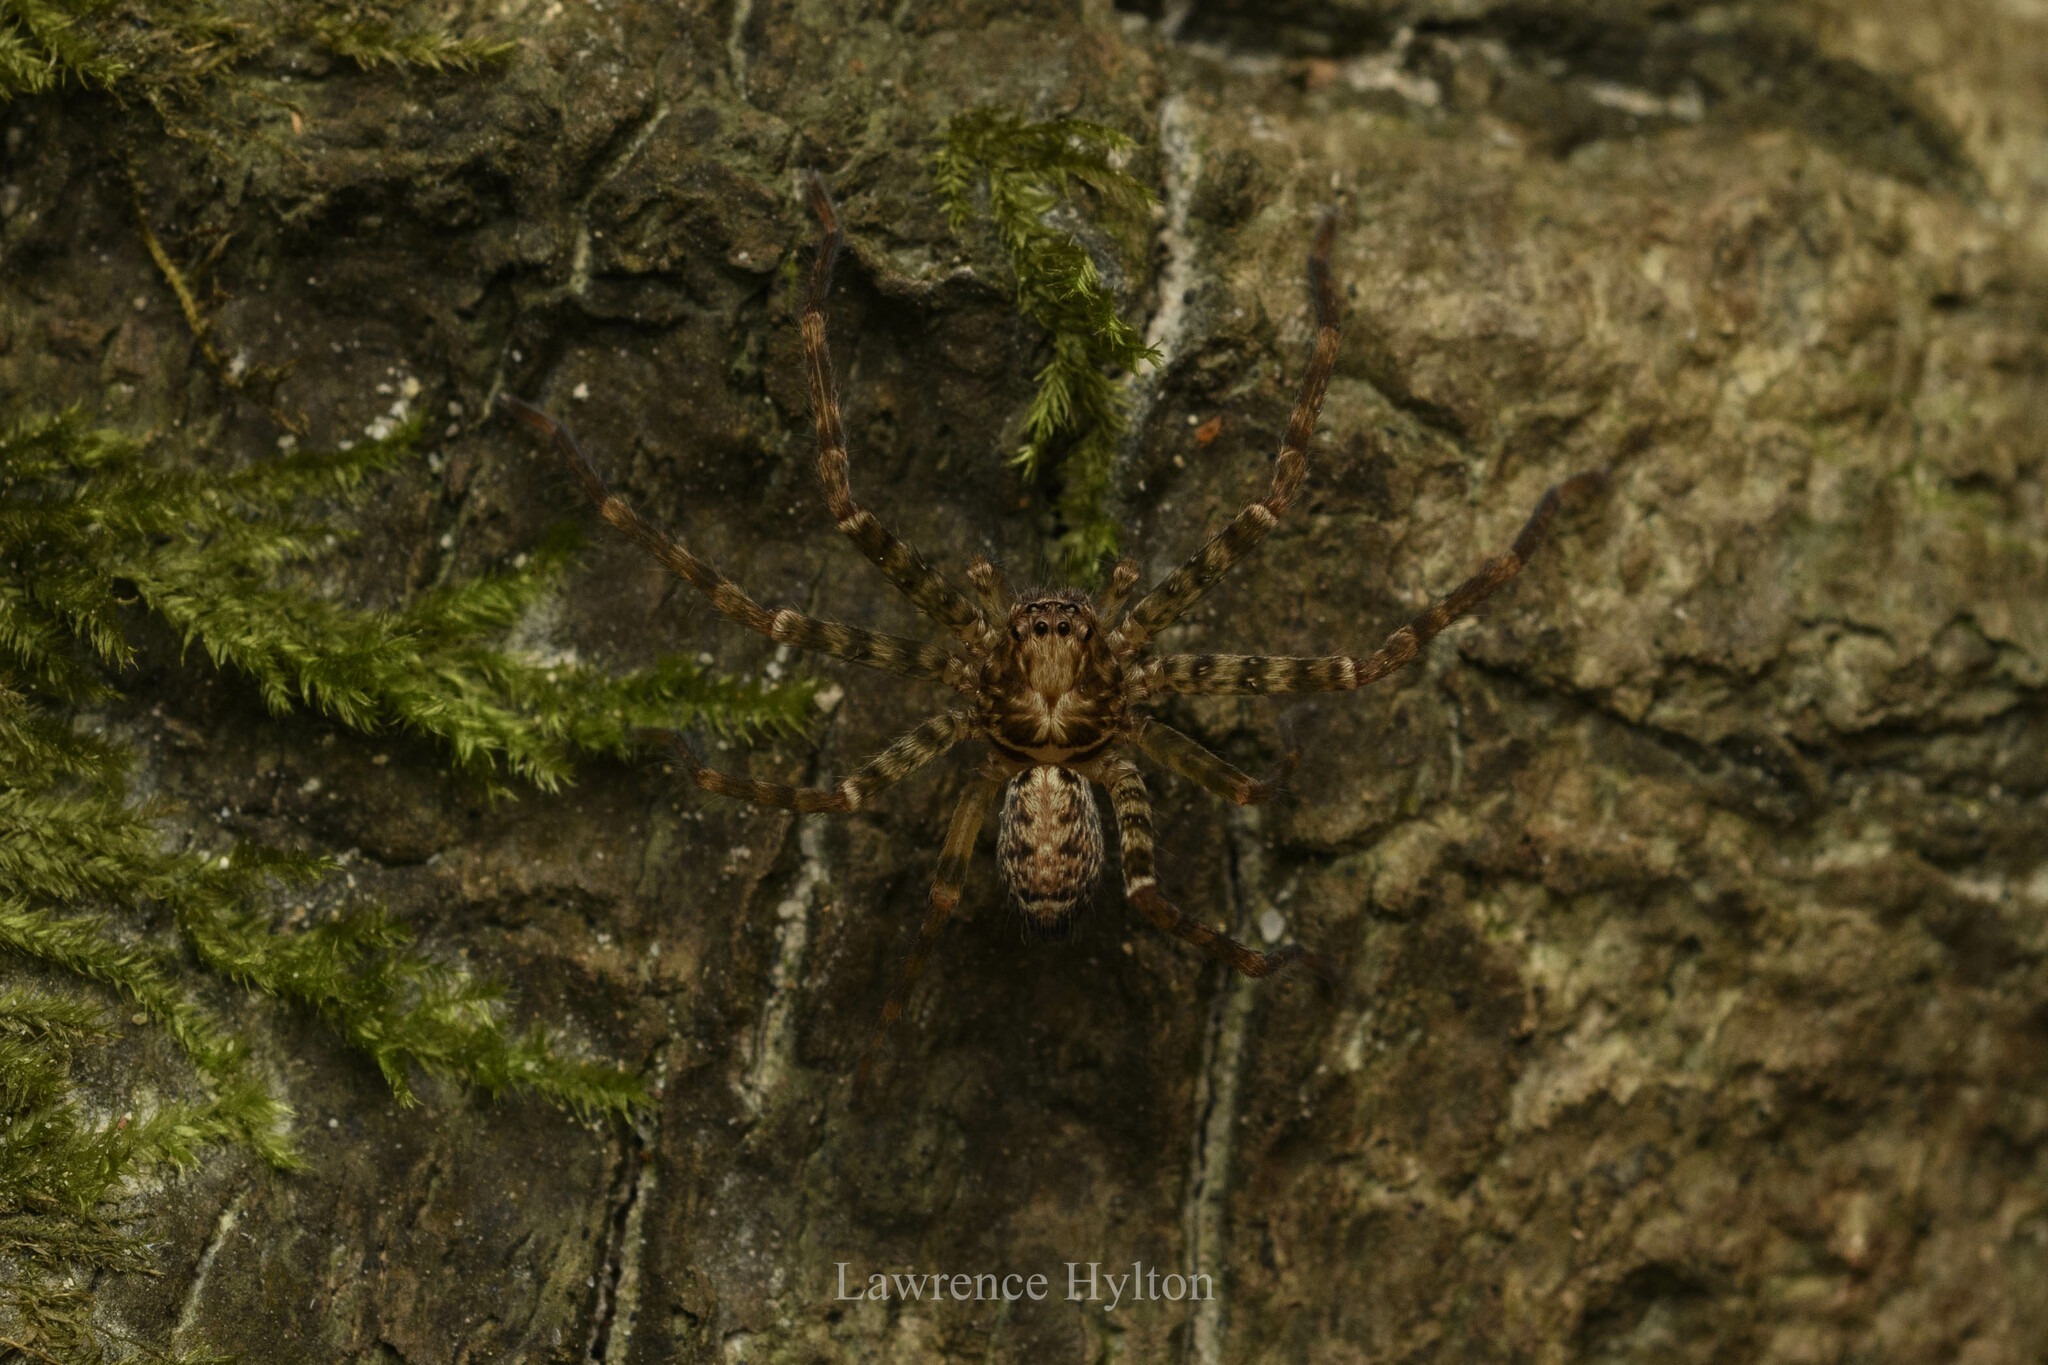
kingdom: Animalia
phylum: Arthropoda
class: Arachnida
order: Araneae
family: Sparassidae
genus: Heteropoda
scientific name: Heteropoda amphora
